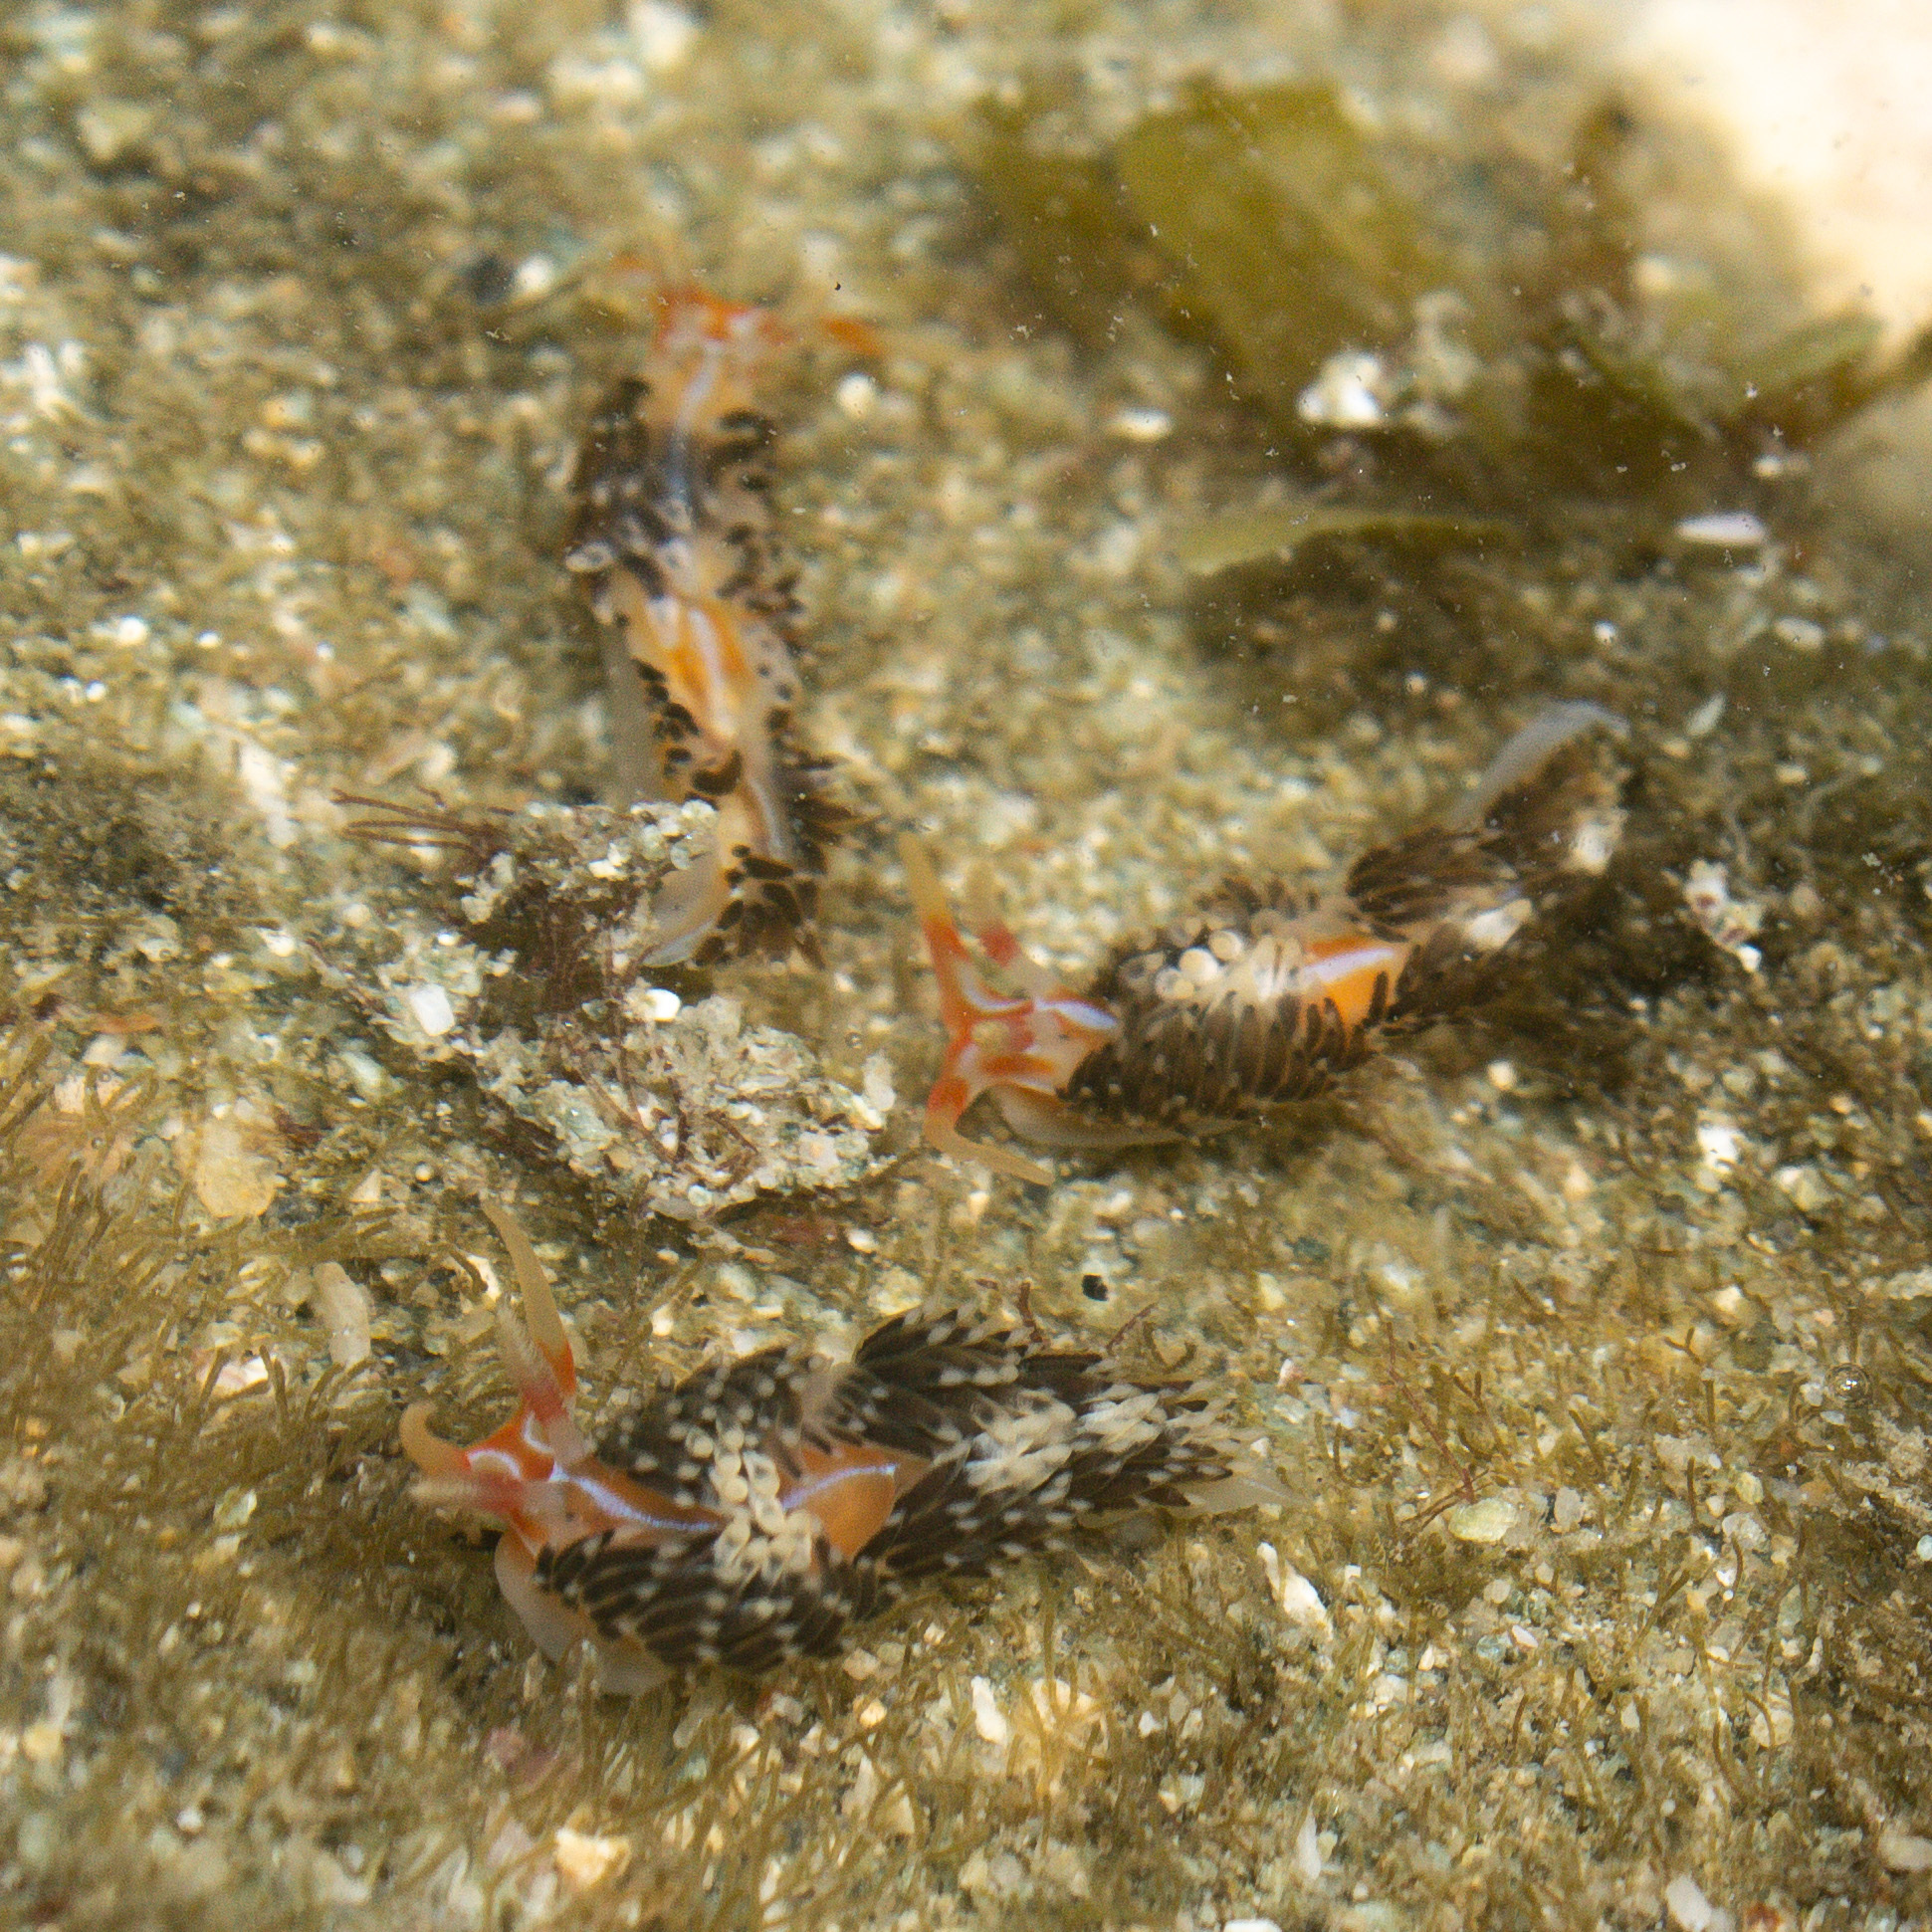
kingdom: Animalia
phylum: Mollusca
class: Gastropoda
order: Nudibranchia
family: Facelinidae
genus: Phidiana
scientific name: Phidiana lynceus
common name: Lynx nudibranch
